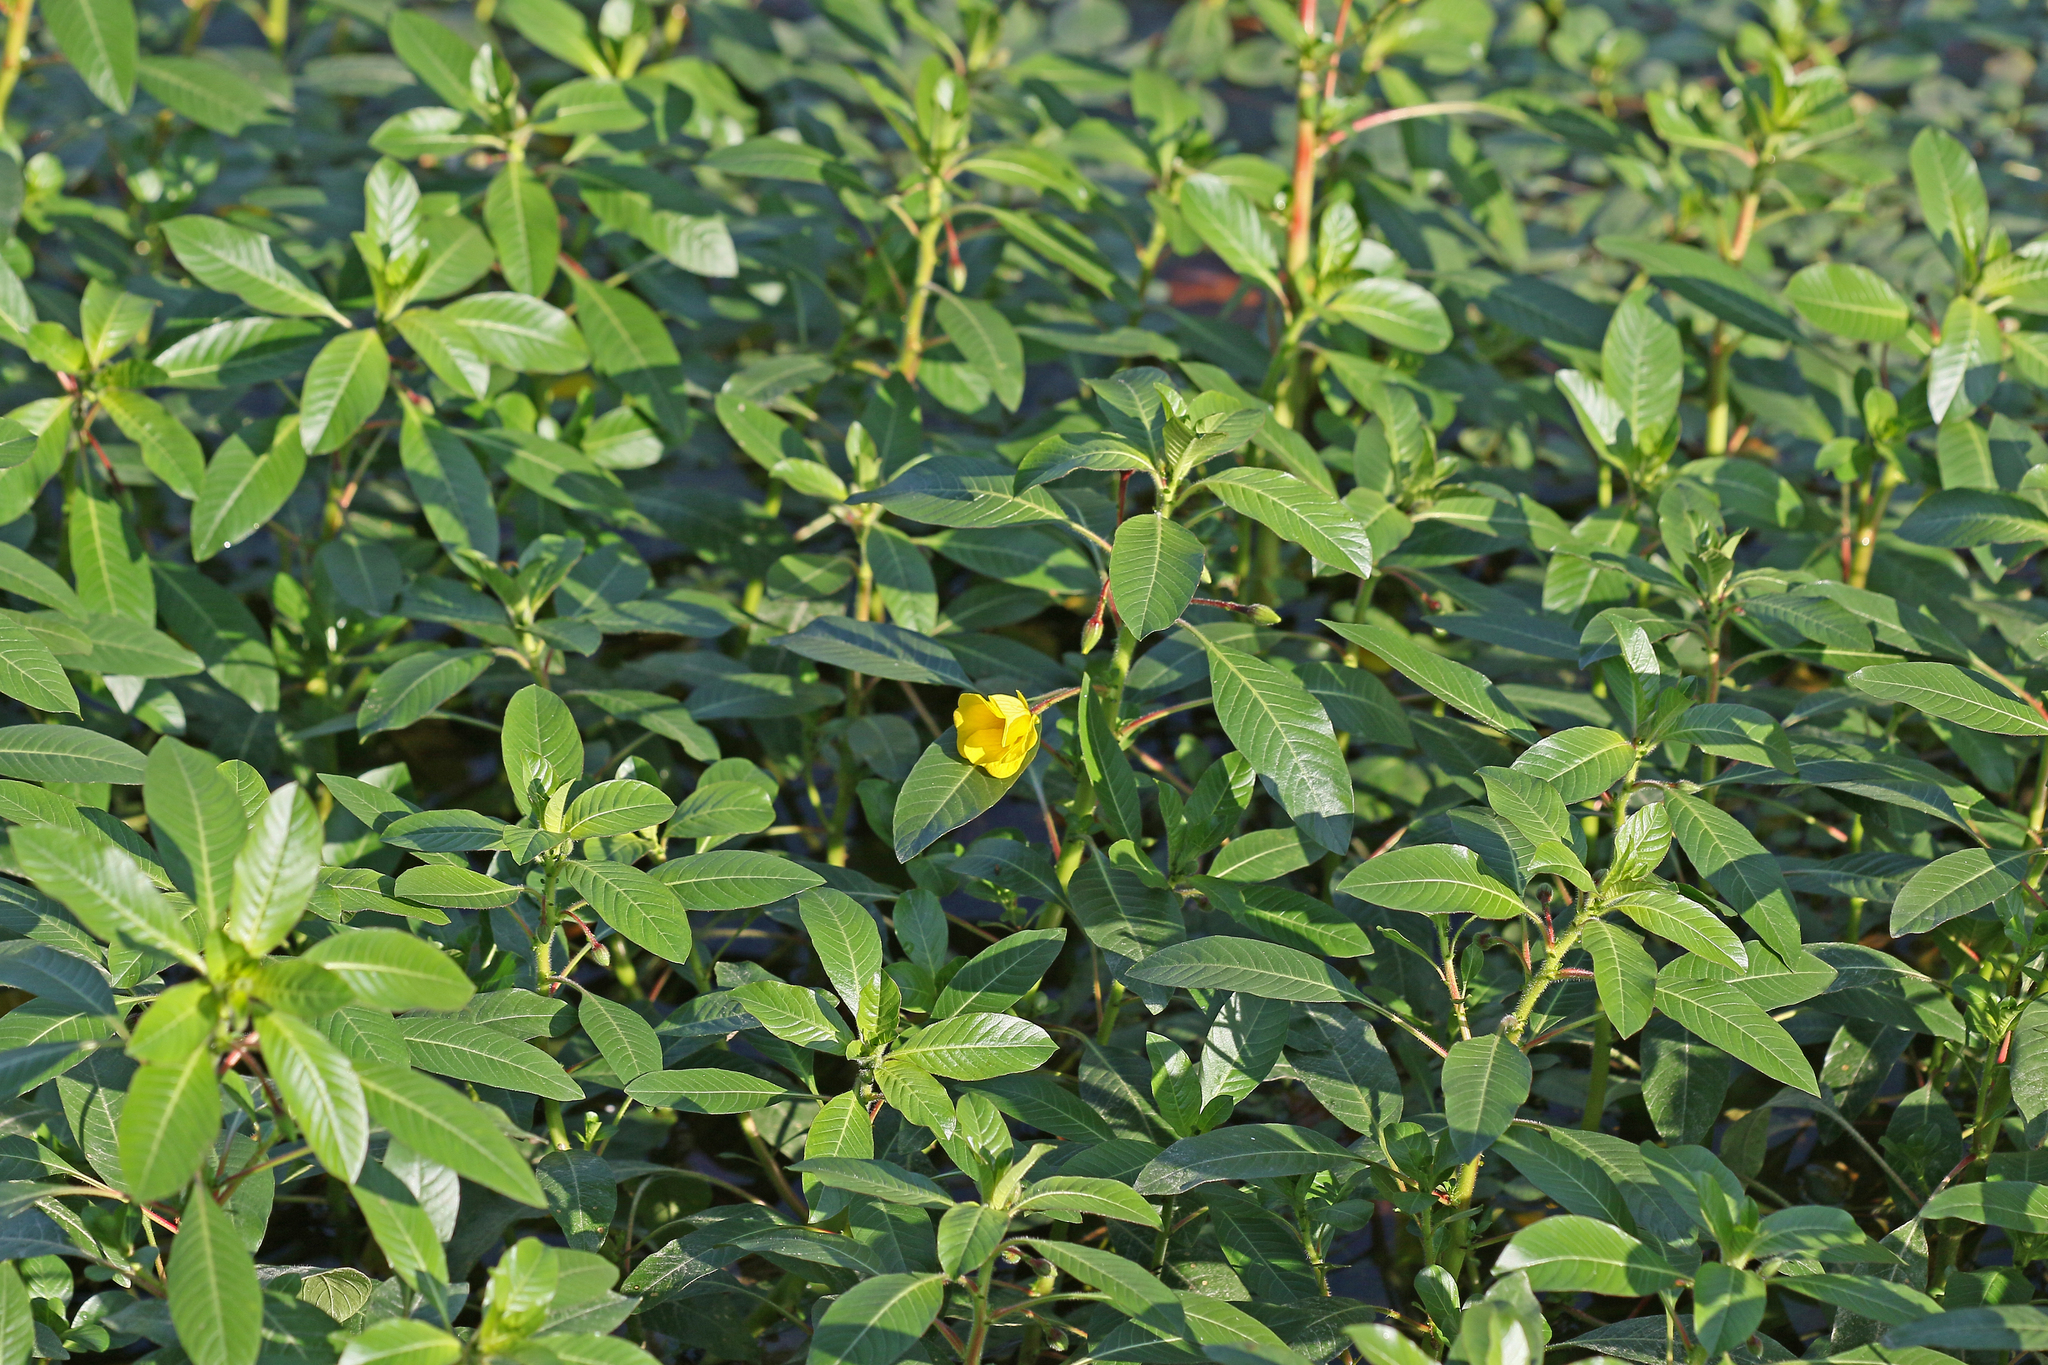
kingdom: Plantae
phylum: Tracheophyta
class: Magnoliopsida
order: Myrtales
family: Onagraceae
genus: Ludwigia
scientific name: Ludwigia peploides
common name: Floating primrose-willow
